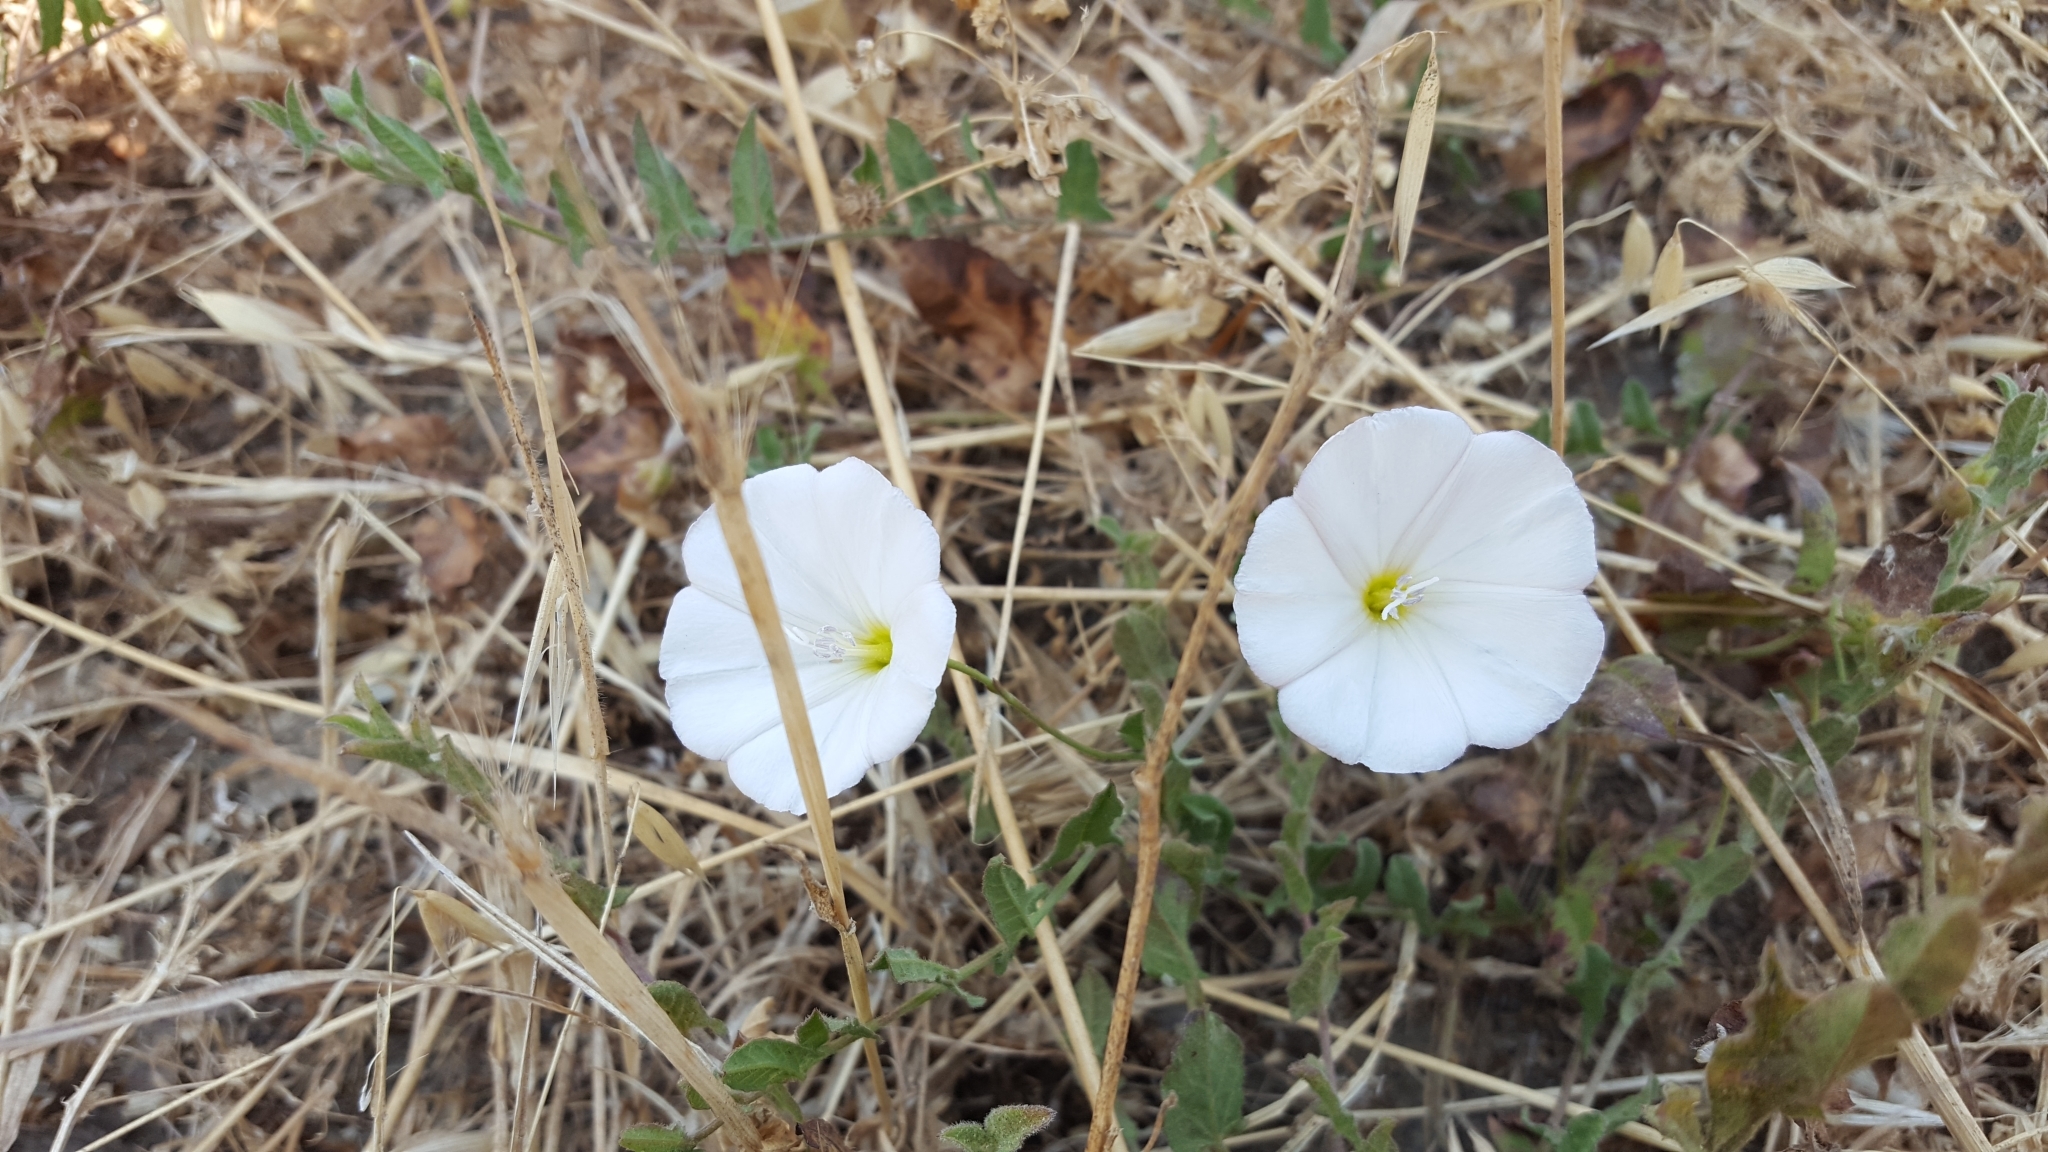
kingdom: Plantae
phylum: Tracheophyta
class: Magnoliopsida
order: Solanales
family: Convolvulaceae
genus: Convolvulus
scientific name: Convolvulus arvensis
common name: Field bindweed
